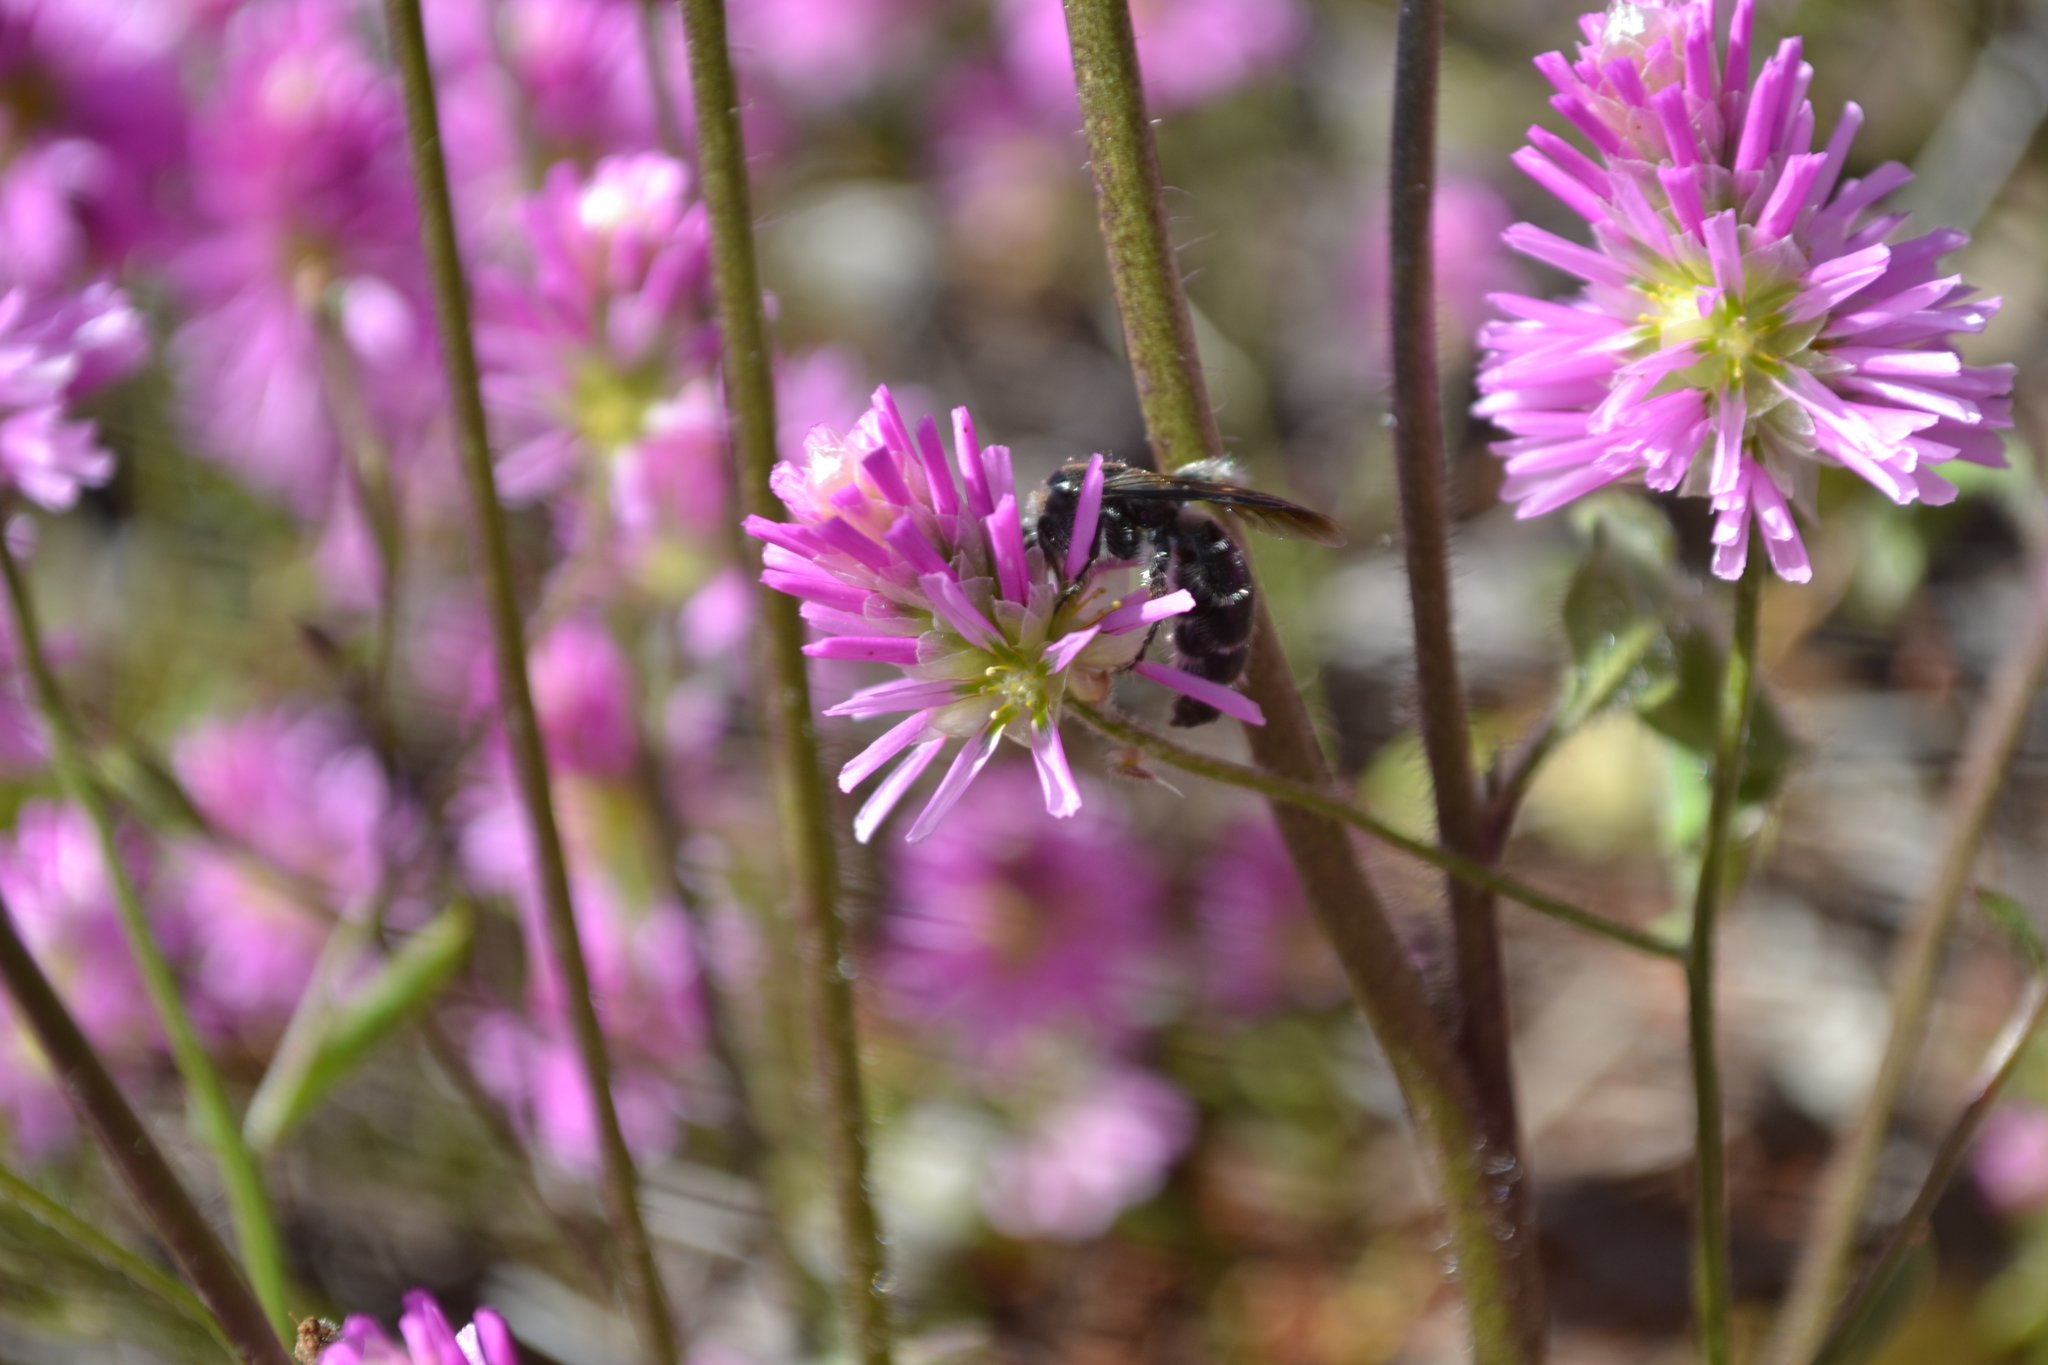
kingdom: Plantae
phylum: Tracheophyta
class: Magnoliopsida
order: Caryophyllales
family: Amaranthaceae
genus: Ptilotus
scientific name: Ptilotus grandiflorus
